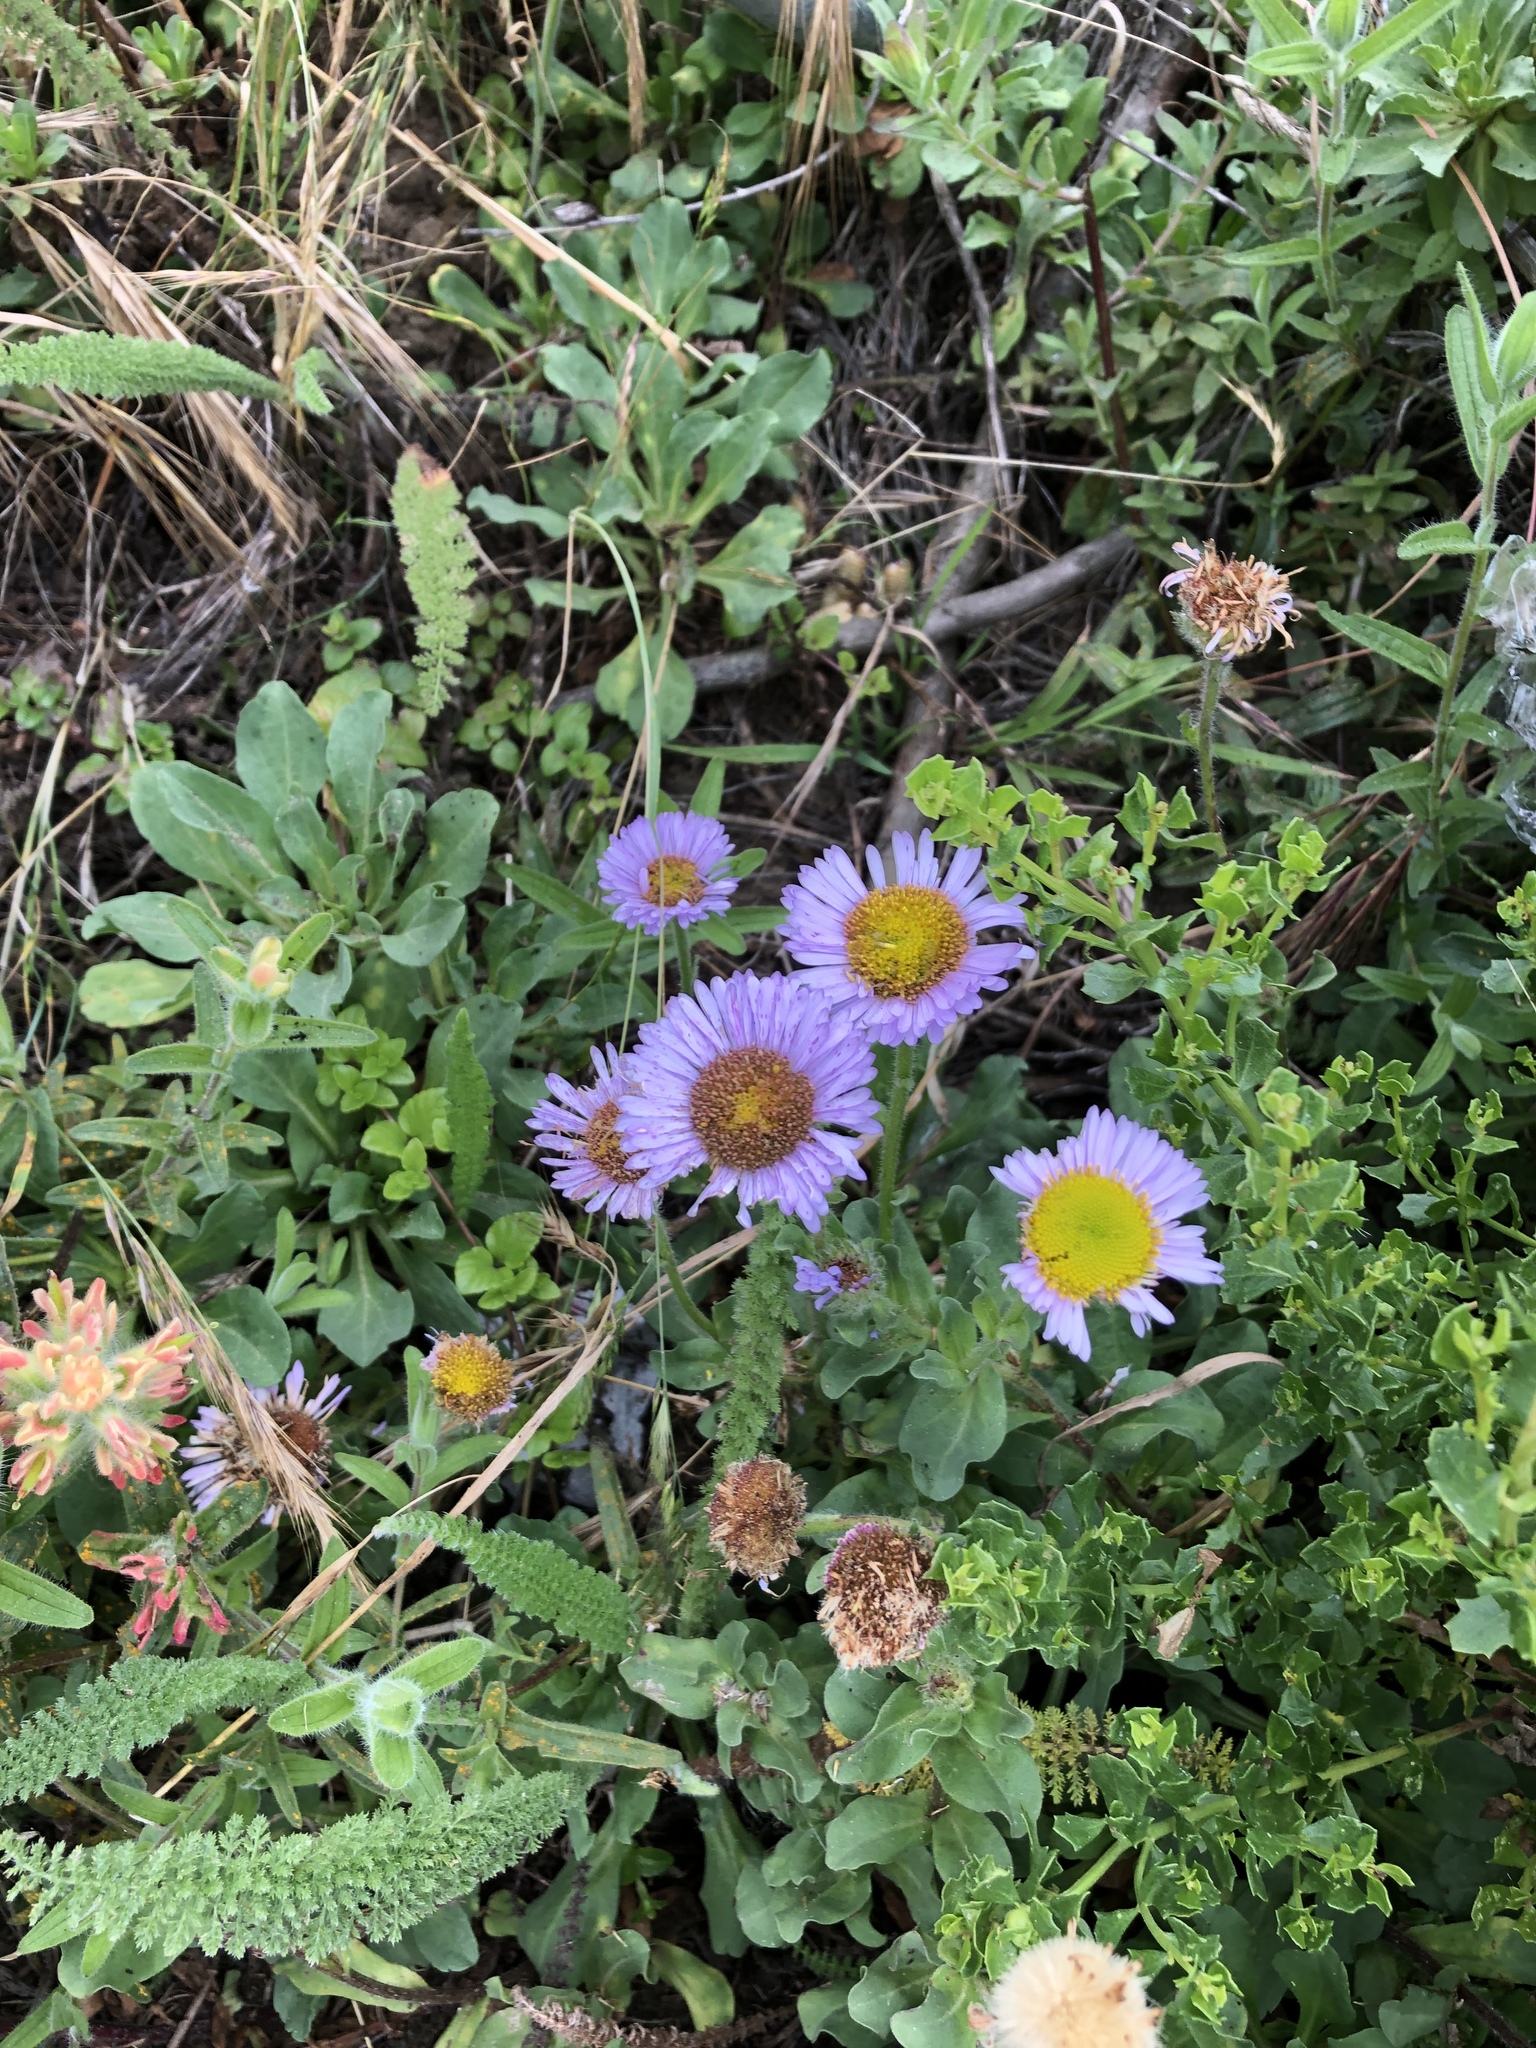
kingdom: Plantae
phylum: Tracheophyta
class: Magnoliopsida
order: Asterales
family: Asteraceae
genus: Erigeron
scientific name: Erigeron glaucus
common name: Seaside daisy
